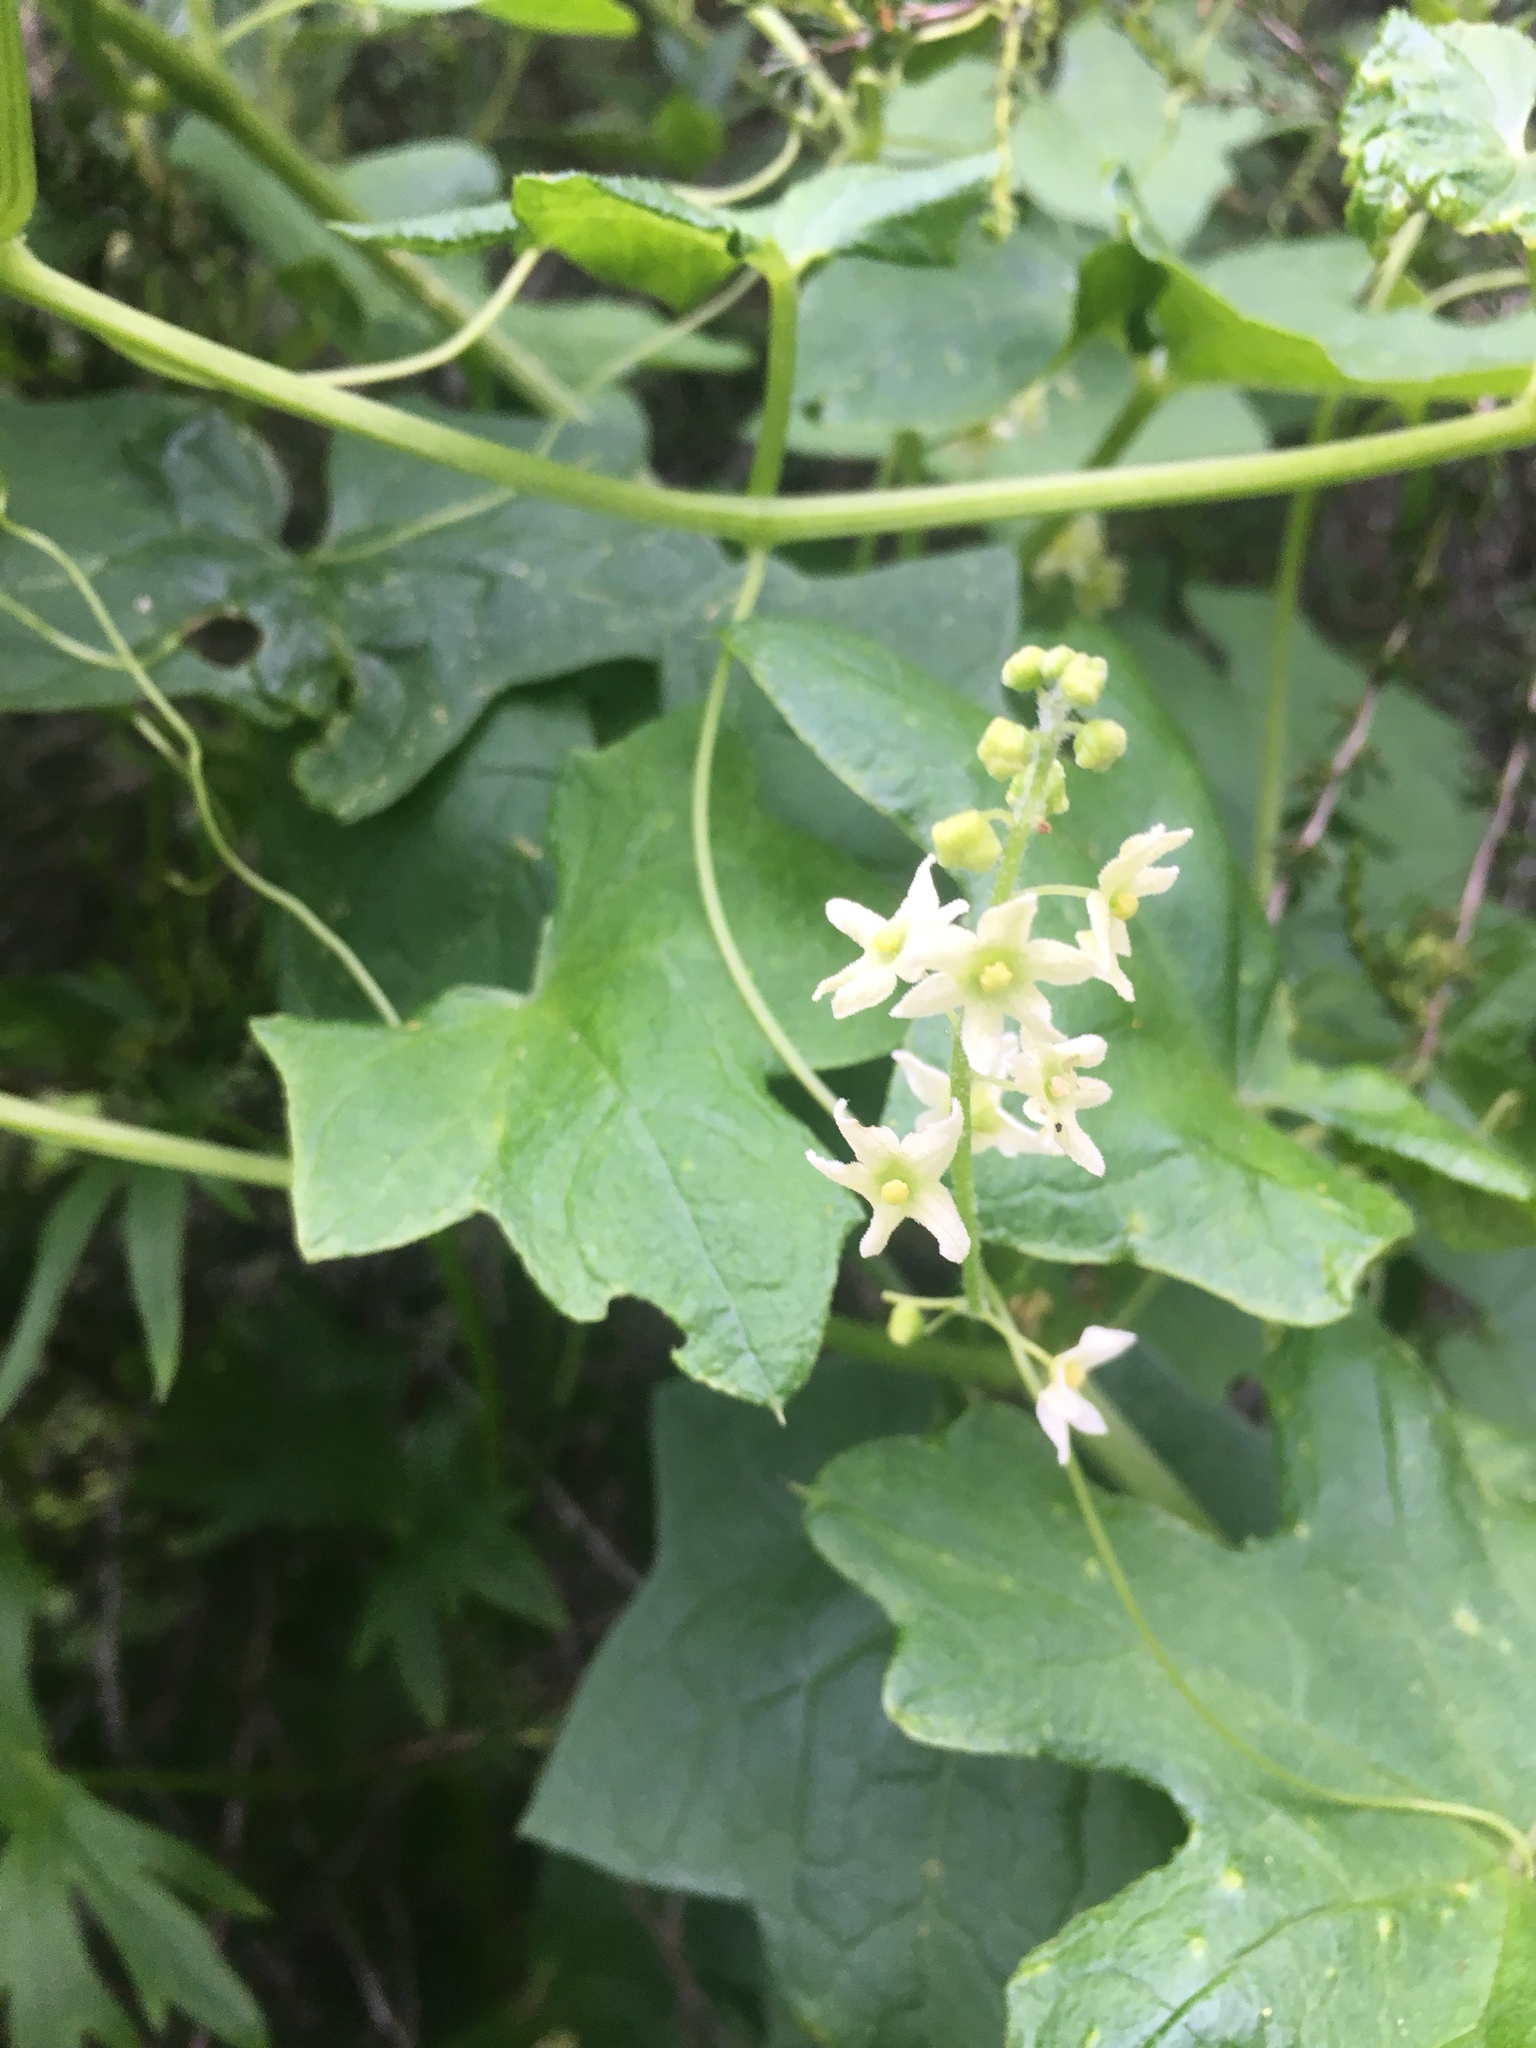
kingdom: Plantae
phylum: Tracheophyta
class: Magnoliopsida
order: Cucurbitales
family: Cucurbitaceae
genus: Marah
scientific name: Marah fabacea
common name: California manroot
